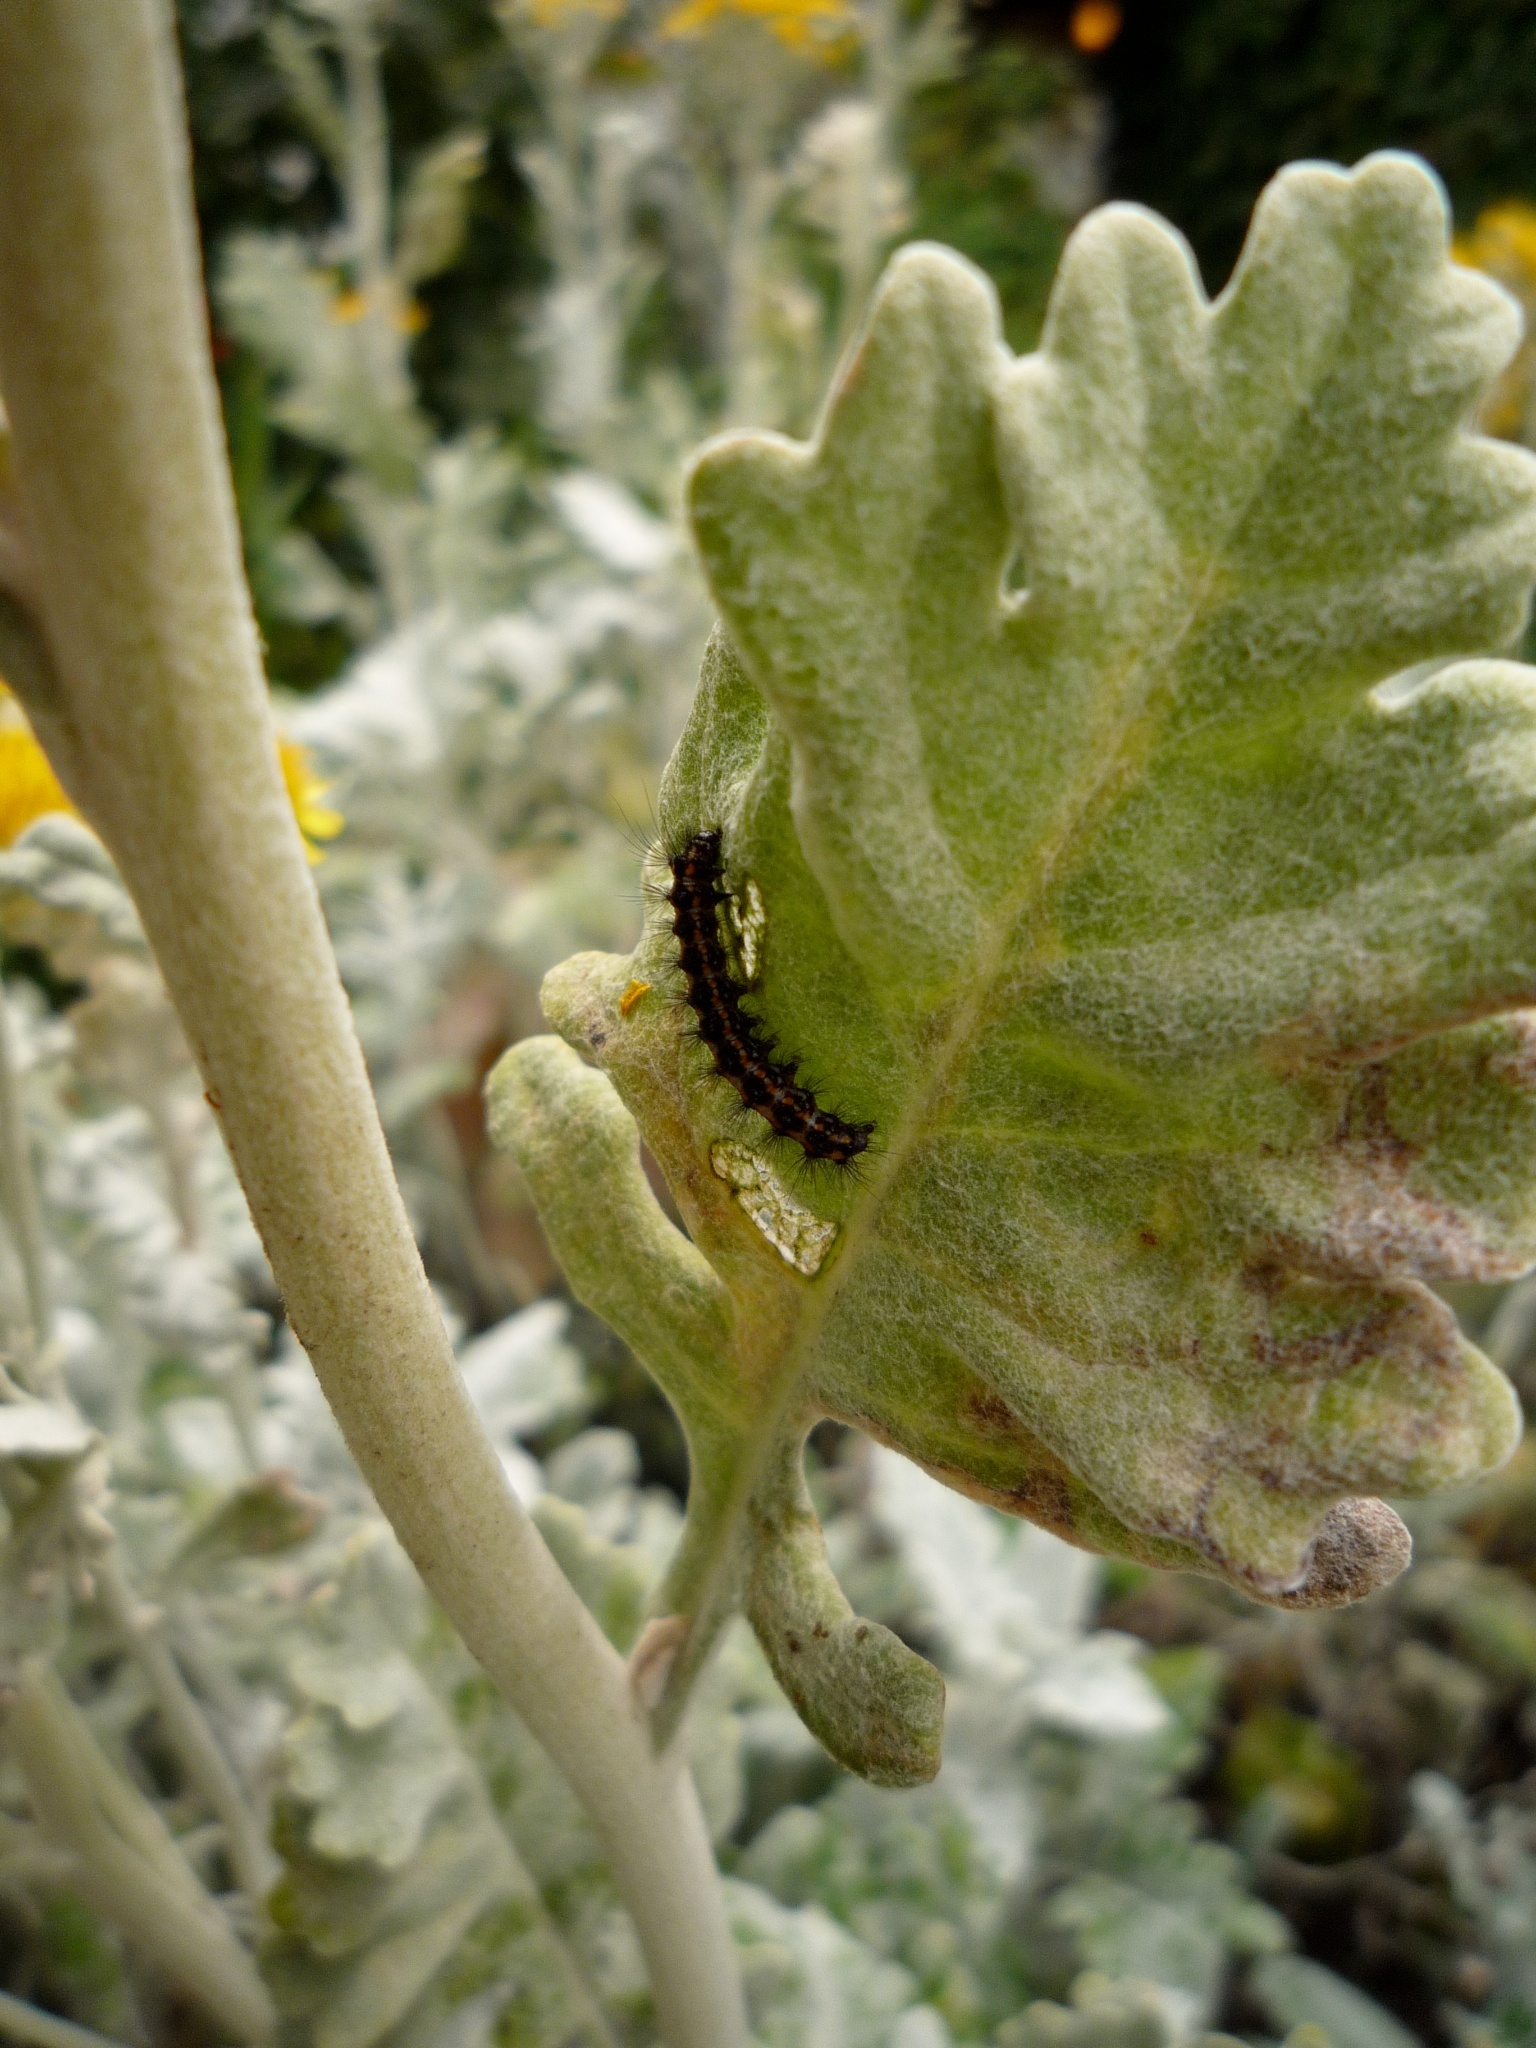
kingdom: Animalia
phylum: Arthropoda
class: Insecta
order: Lepidoptera
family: Erebidae
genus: Nyctemera
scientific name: Nyctemera annulatum
